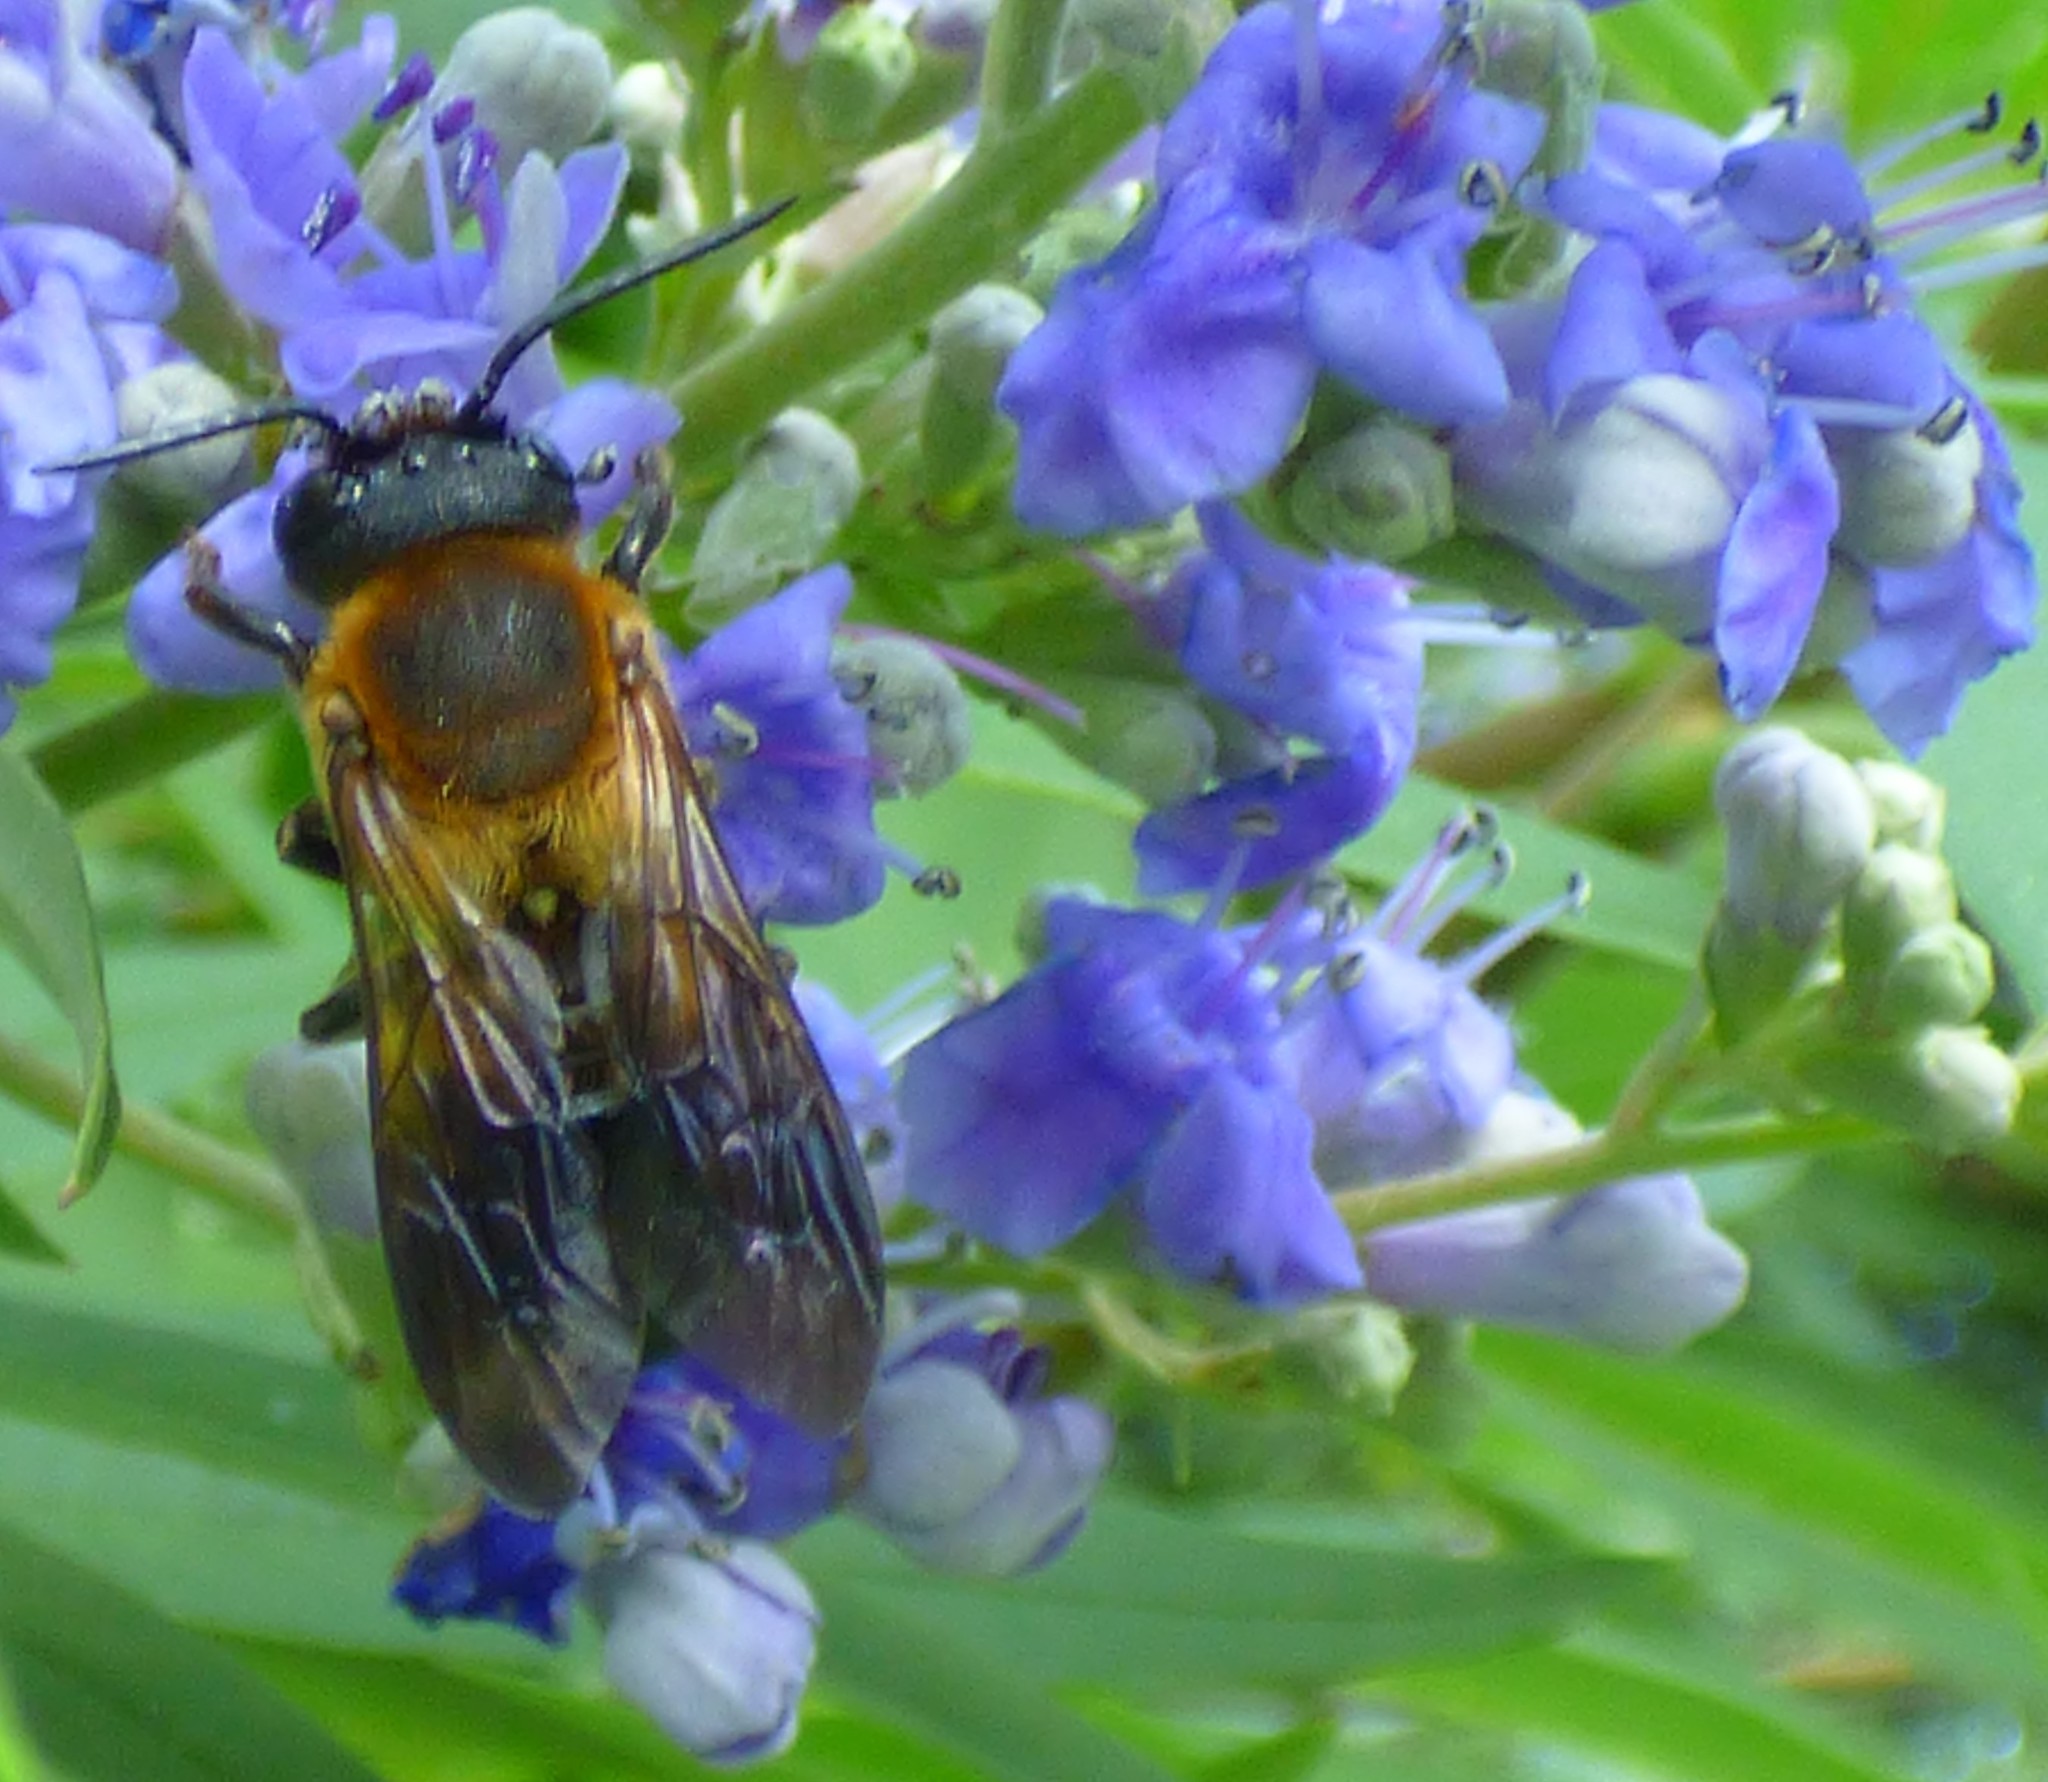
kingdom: Animalia
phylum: Arthropoda
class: Insecta
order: Hymenoptera
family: Megachilidae
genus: Megachile
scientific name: Megachile sculpturalis
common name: Sculptured resin bee
